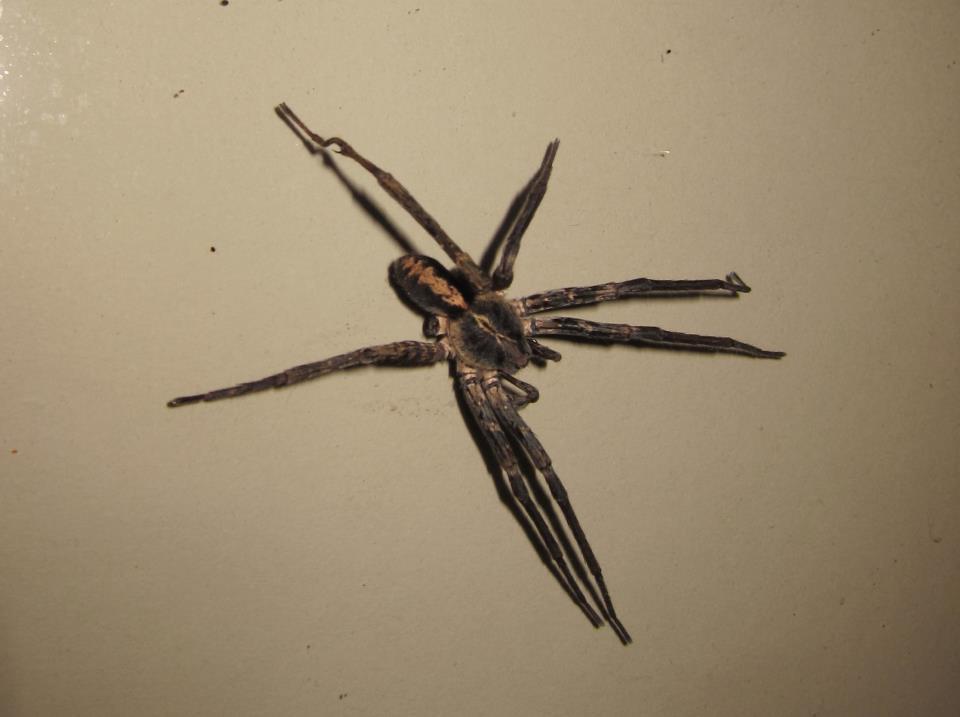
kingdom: Animalia
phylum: Arthropoda
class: Arachnida
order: Araneae
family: Ctenidae
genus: Kiekie
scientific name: Kiekie sinuatipes
